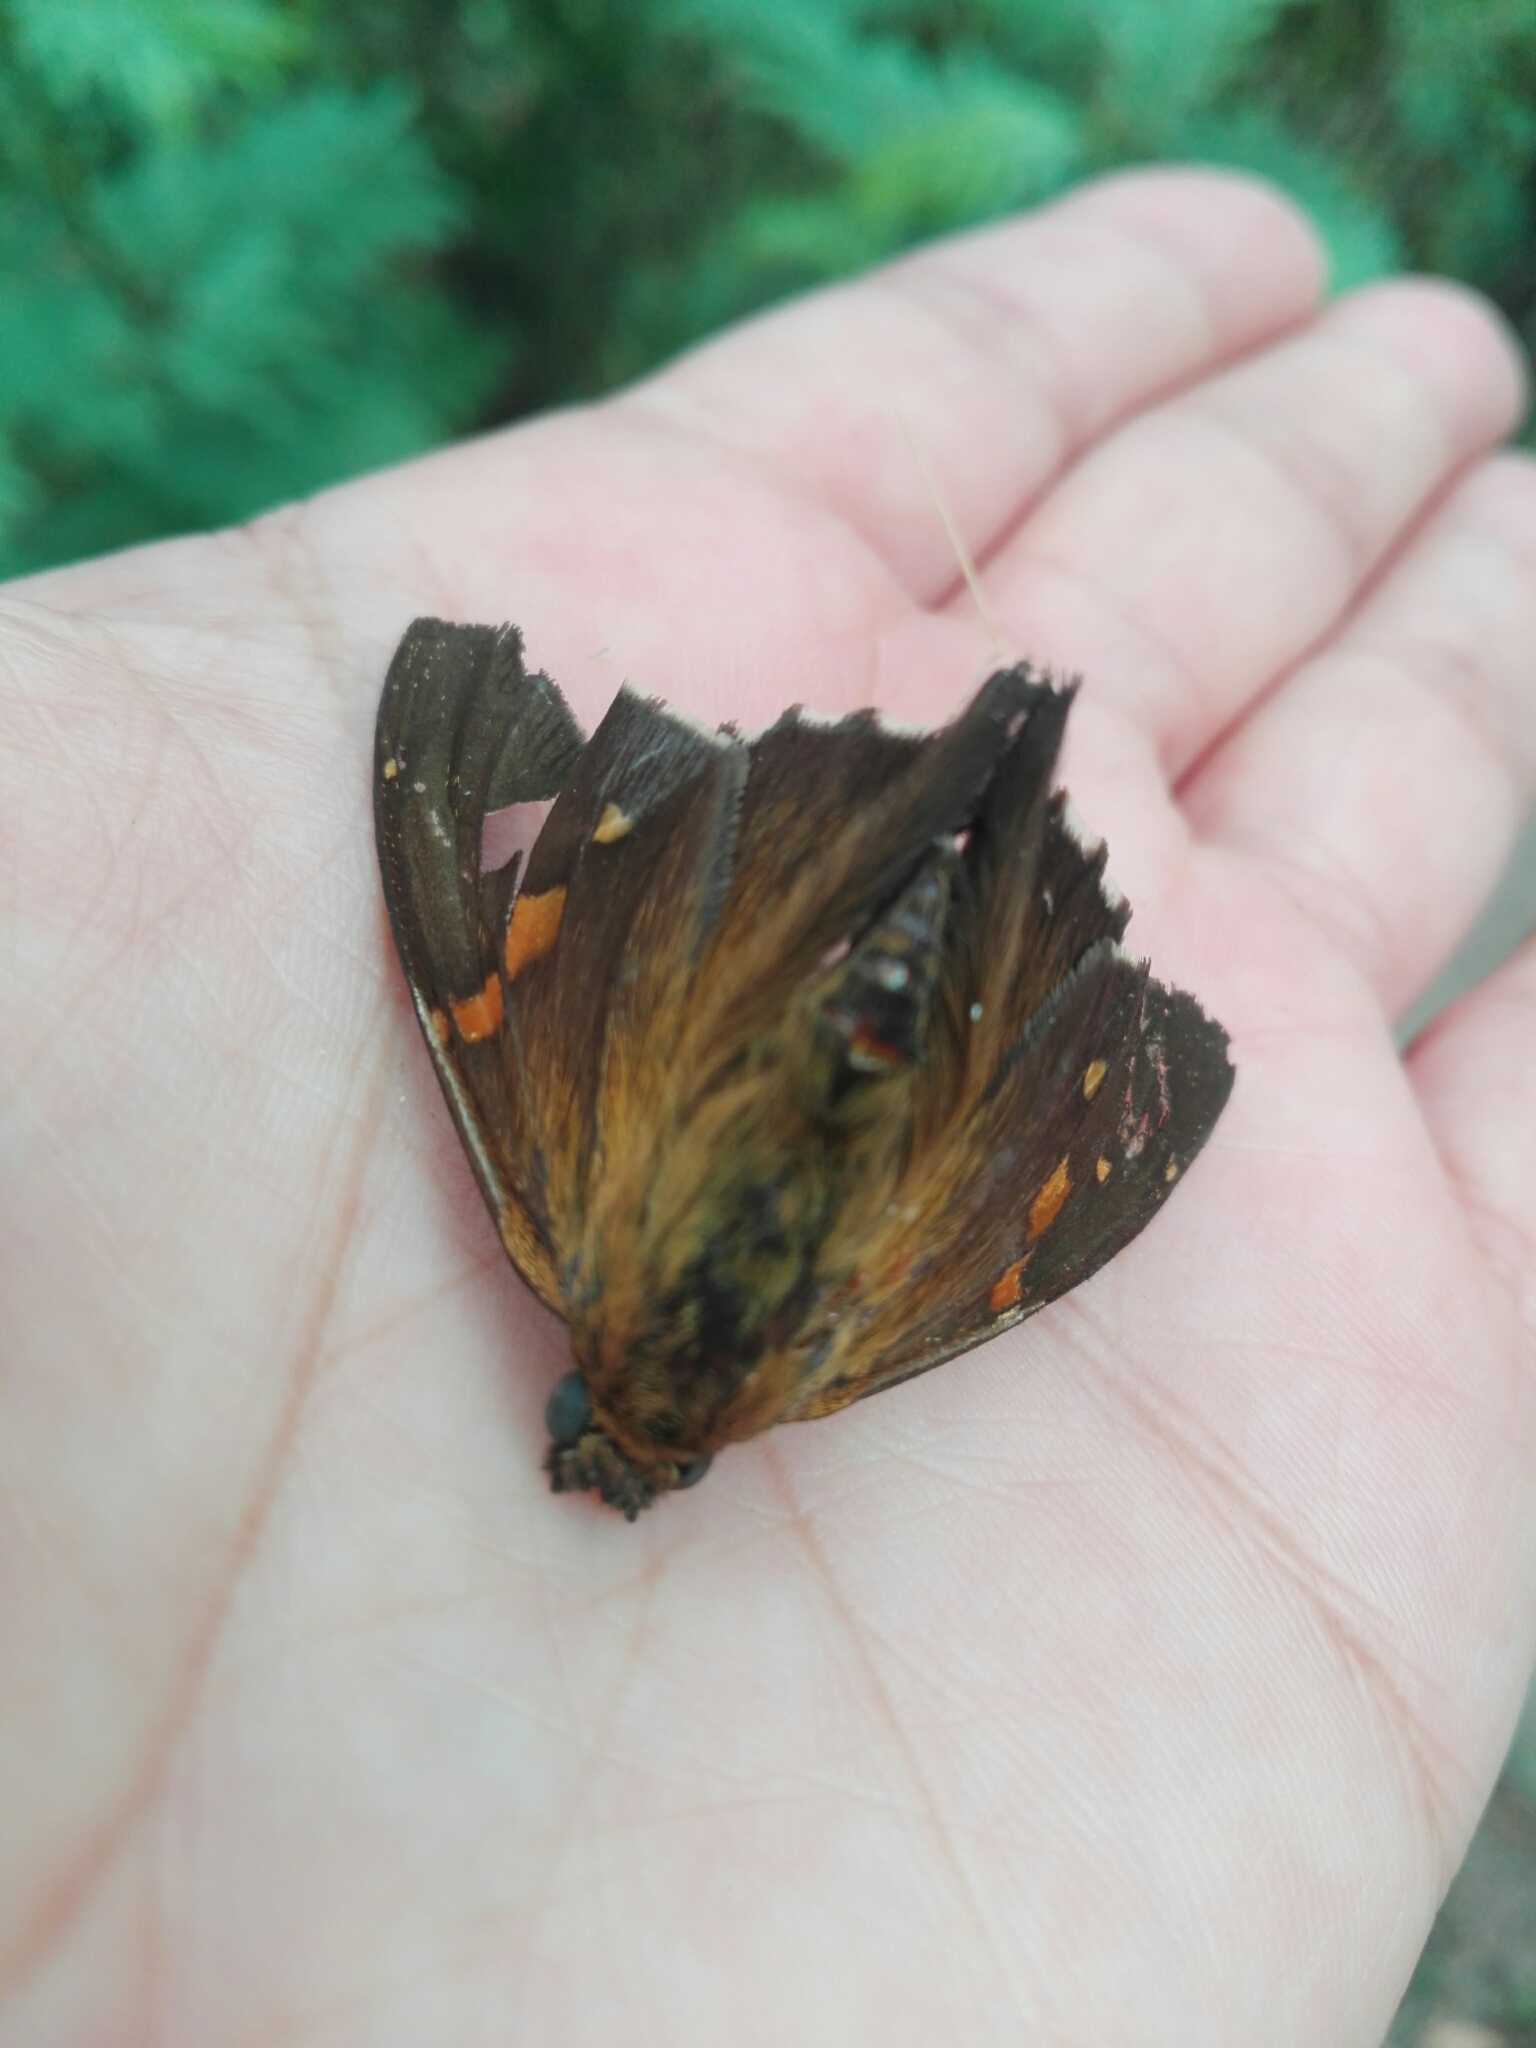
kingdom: Animalia
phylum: Arthropoda
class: Insecta
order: Lepidoptera
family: Hesperiidae
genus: Epargyreus
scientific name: Epargyreus clarus
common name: Silver-spotted skipper
